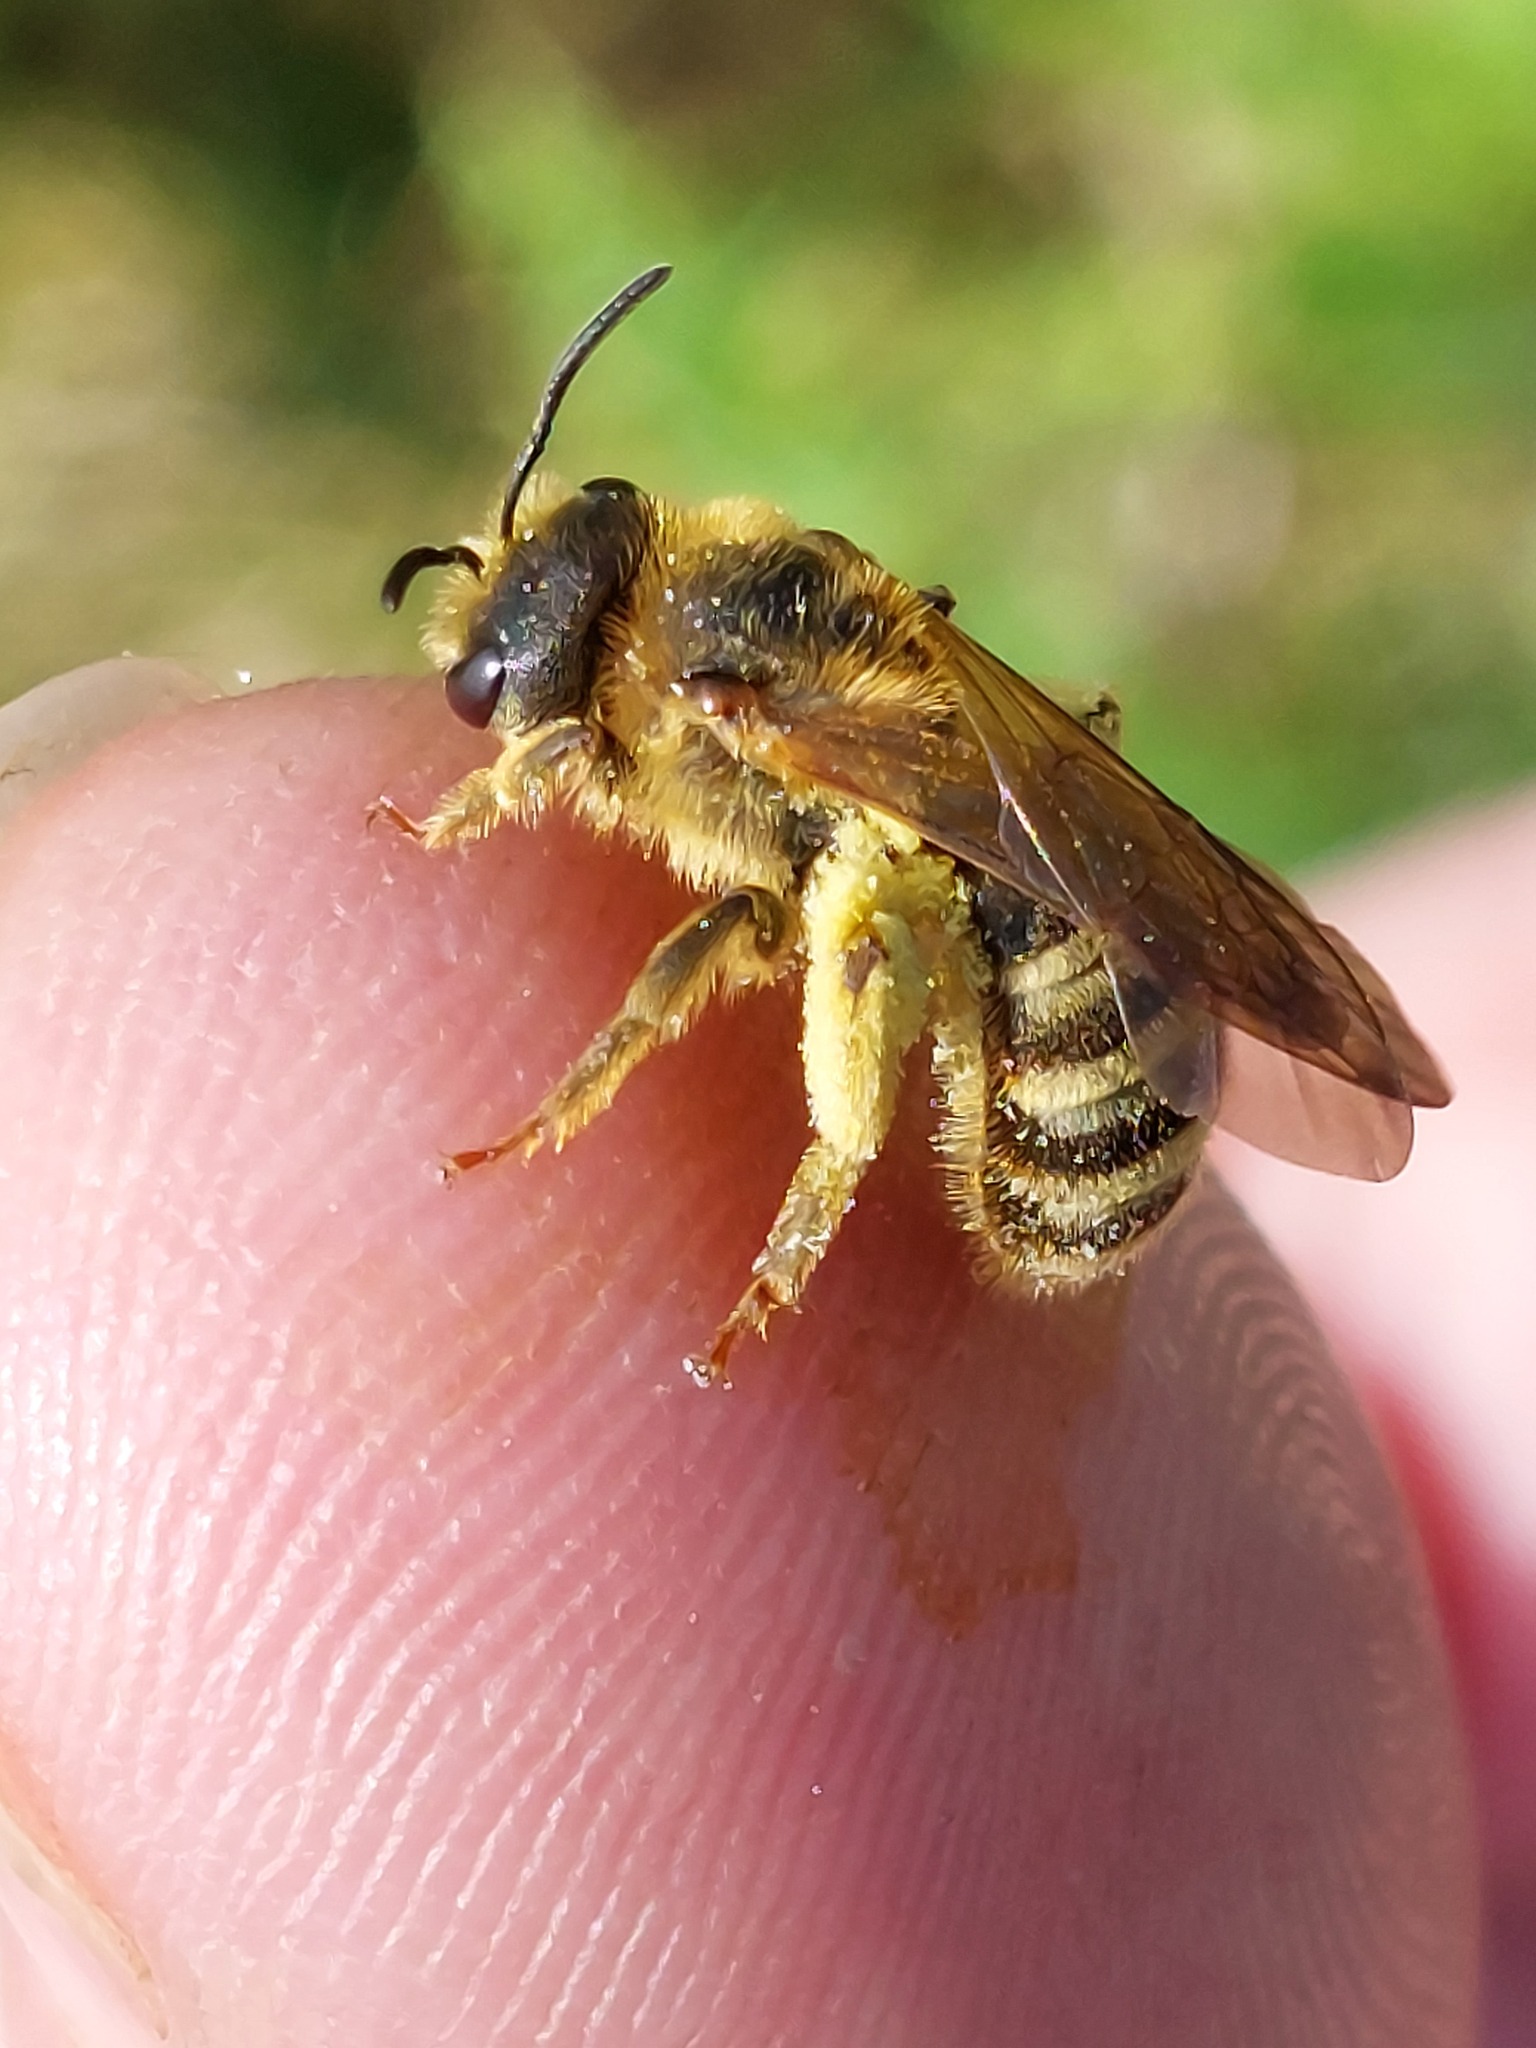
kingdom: Animalia
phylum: Arthropoda
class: Insecta
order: Hymenoptera
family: Halictidae
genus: Halictus
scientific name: Halictus scabiosae
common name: Great banded furrow bee
